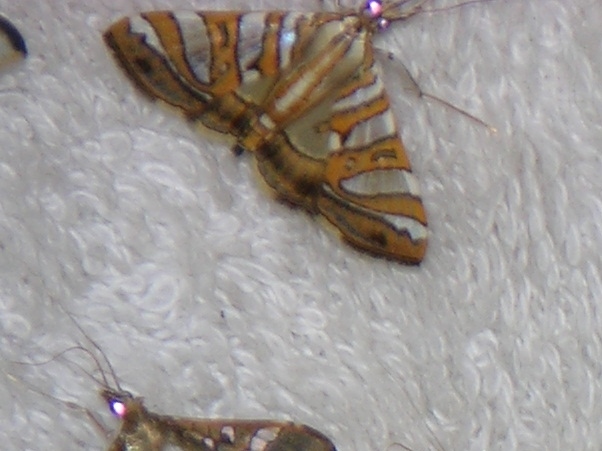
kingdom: Animalia
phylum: Arthropoda
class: Insecta
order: Lepidoptera
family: Crambidae
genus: Caloptychia
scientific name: Caloptychia chrysialis
